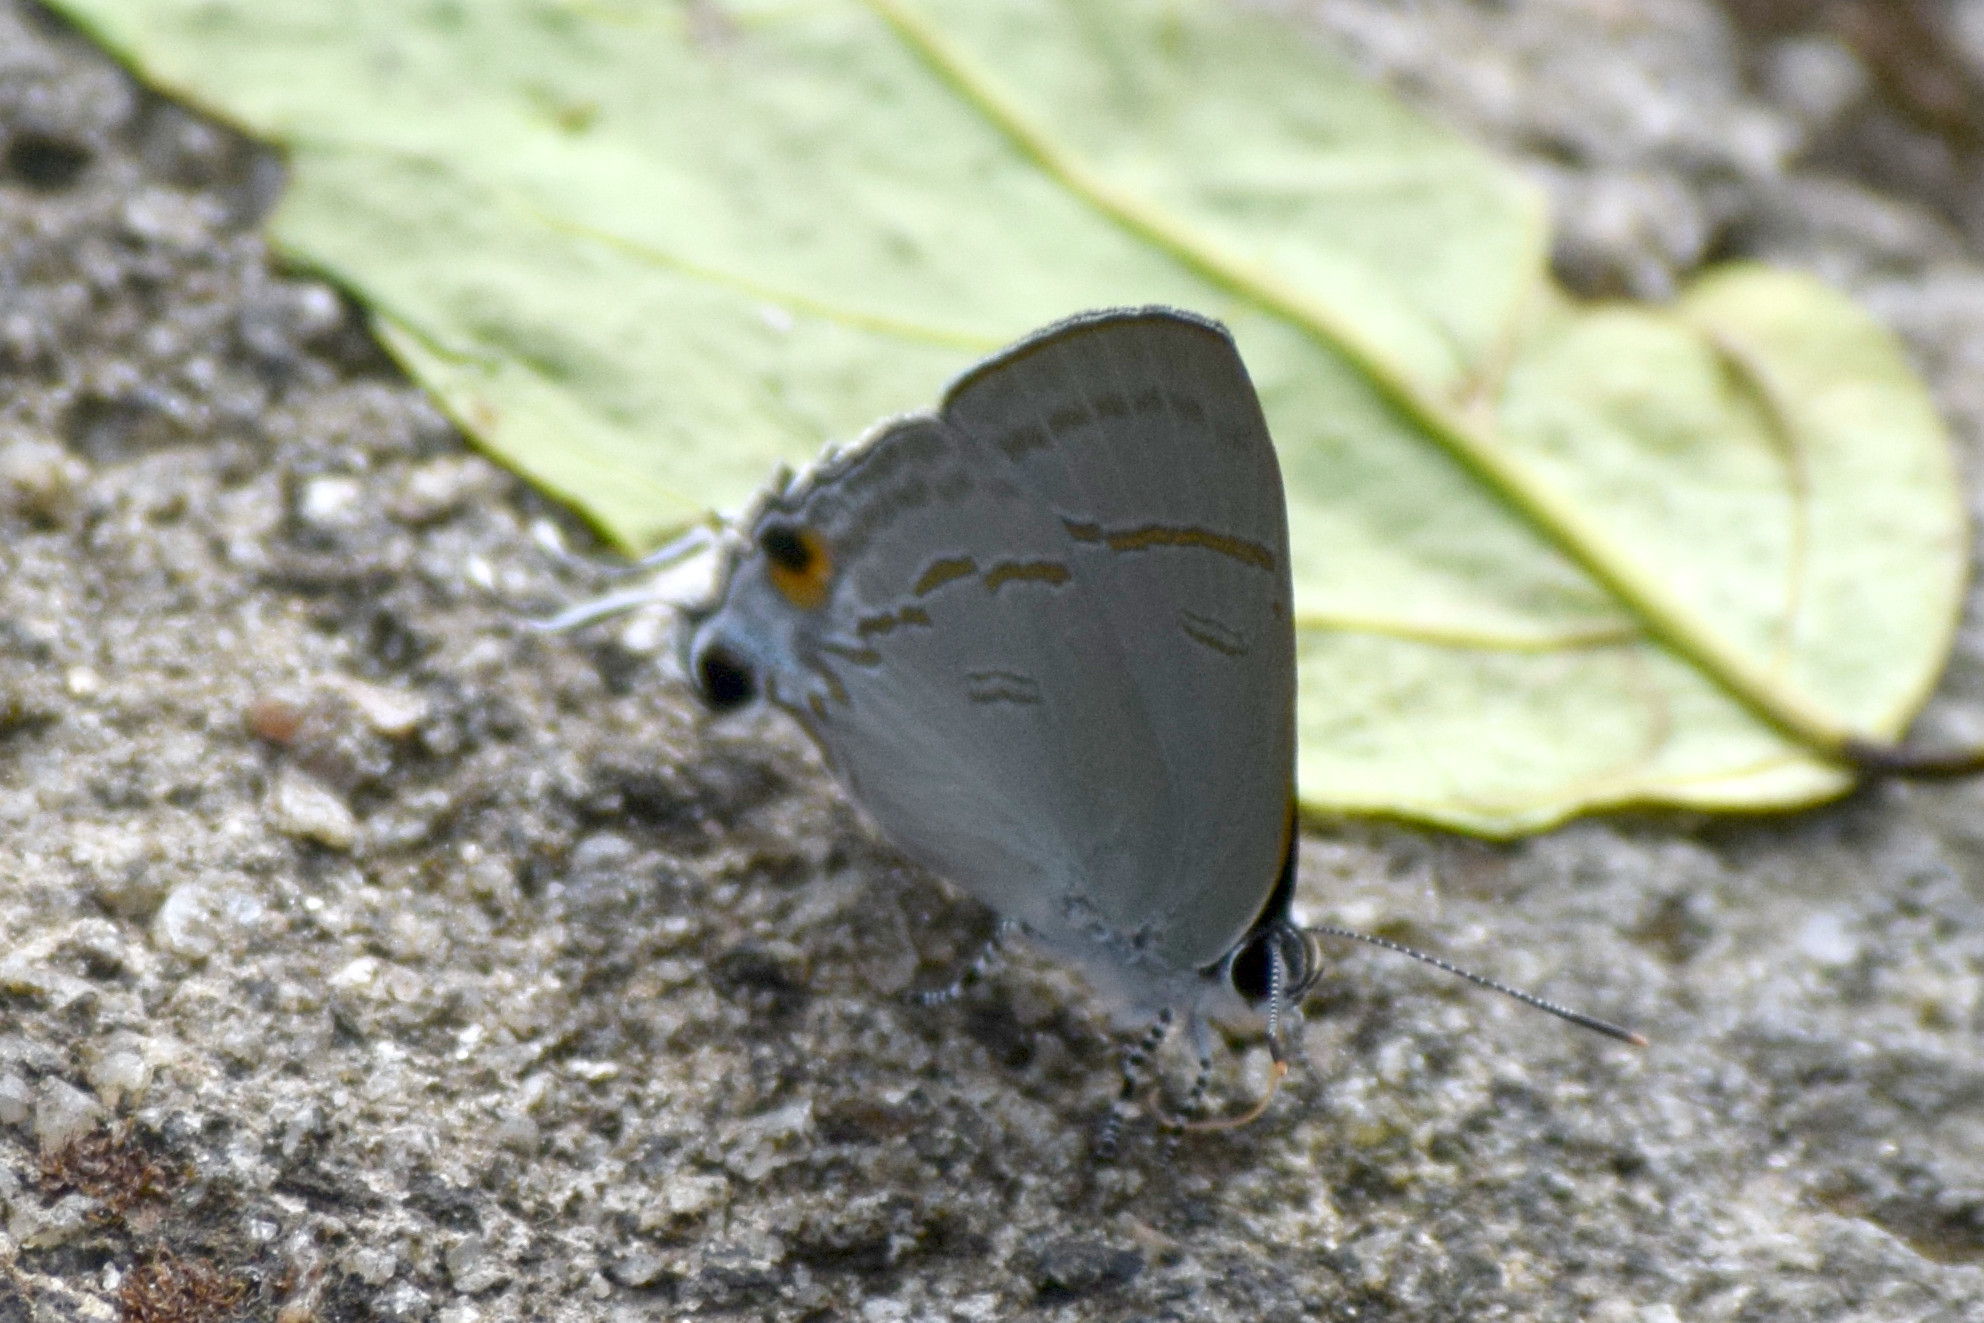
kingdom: Animalia
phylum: Arthropoda
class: Insecta
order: Lepidoptera
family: Lycaenidae
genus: Hypolycaena
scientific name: Hypolycaena erylus
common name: Common tit
